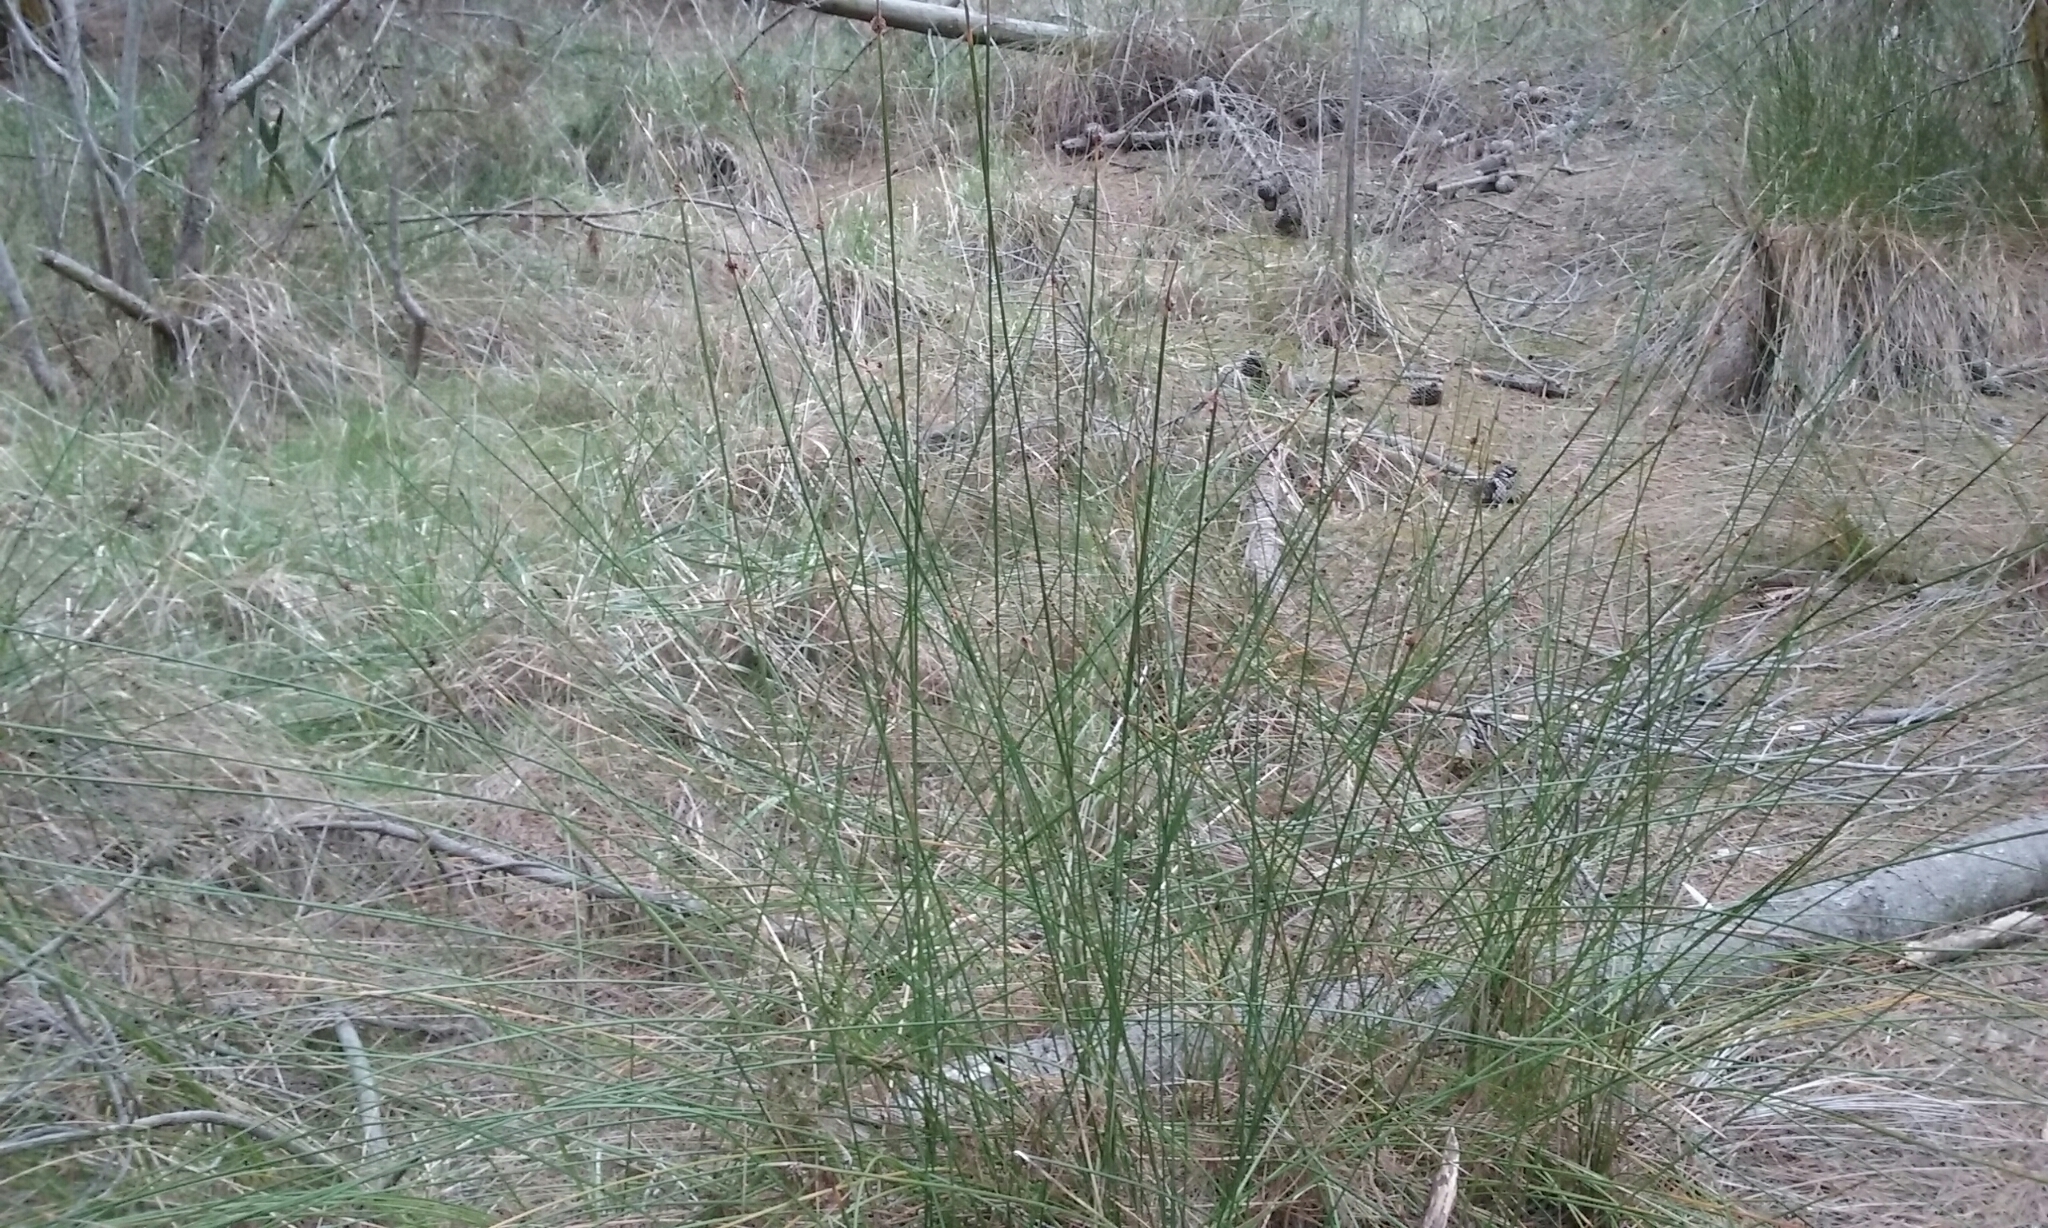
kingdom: Plantae
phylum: Tracheophyta
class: Liliopsida
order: Poales
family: Cyperaceae
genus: Ficinia
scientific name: Ficinia nodosa
